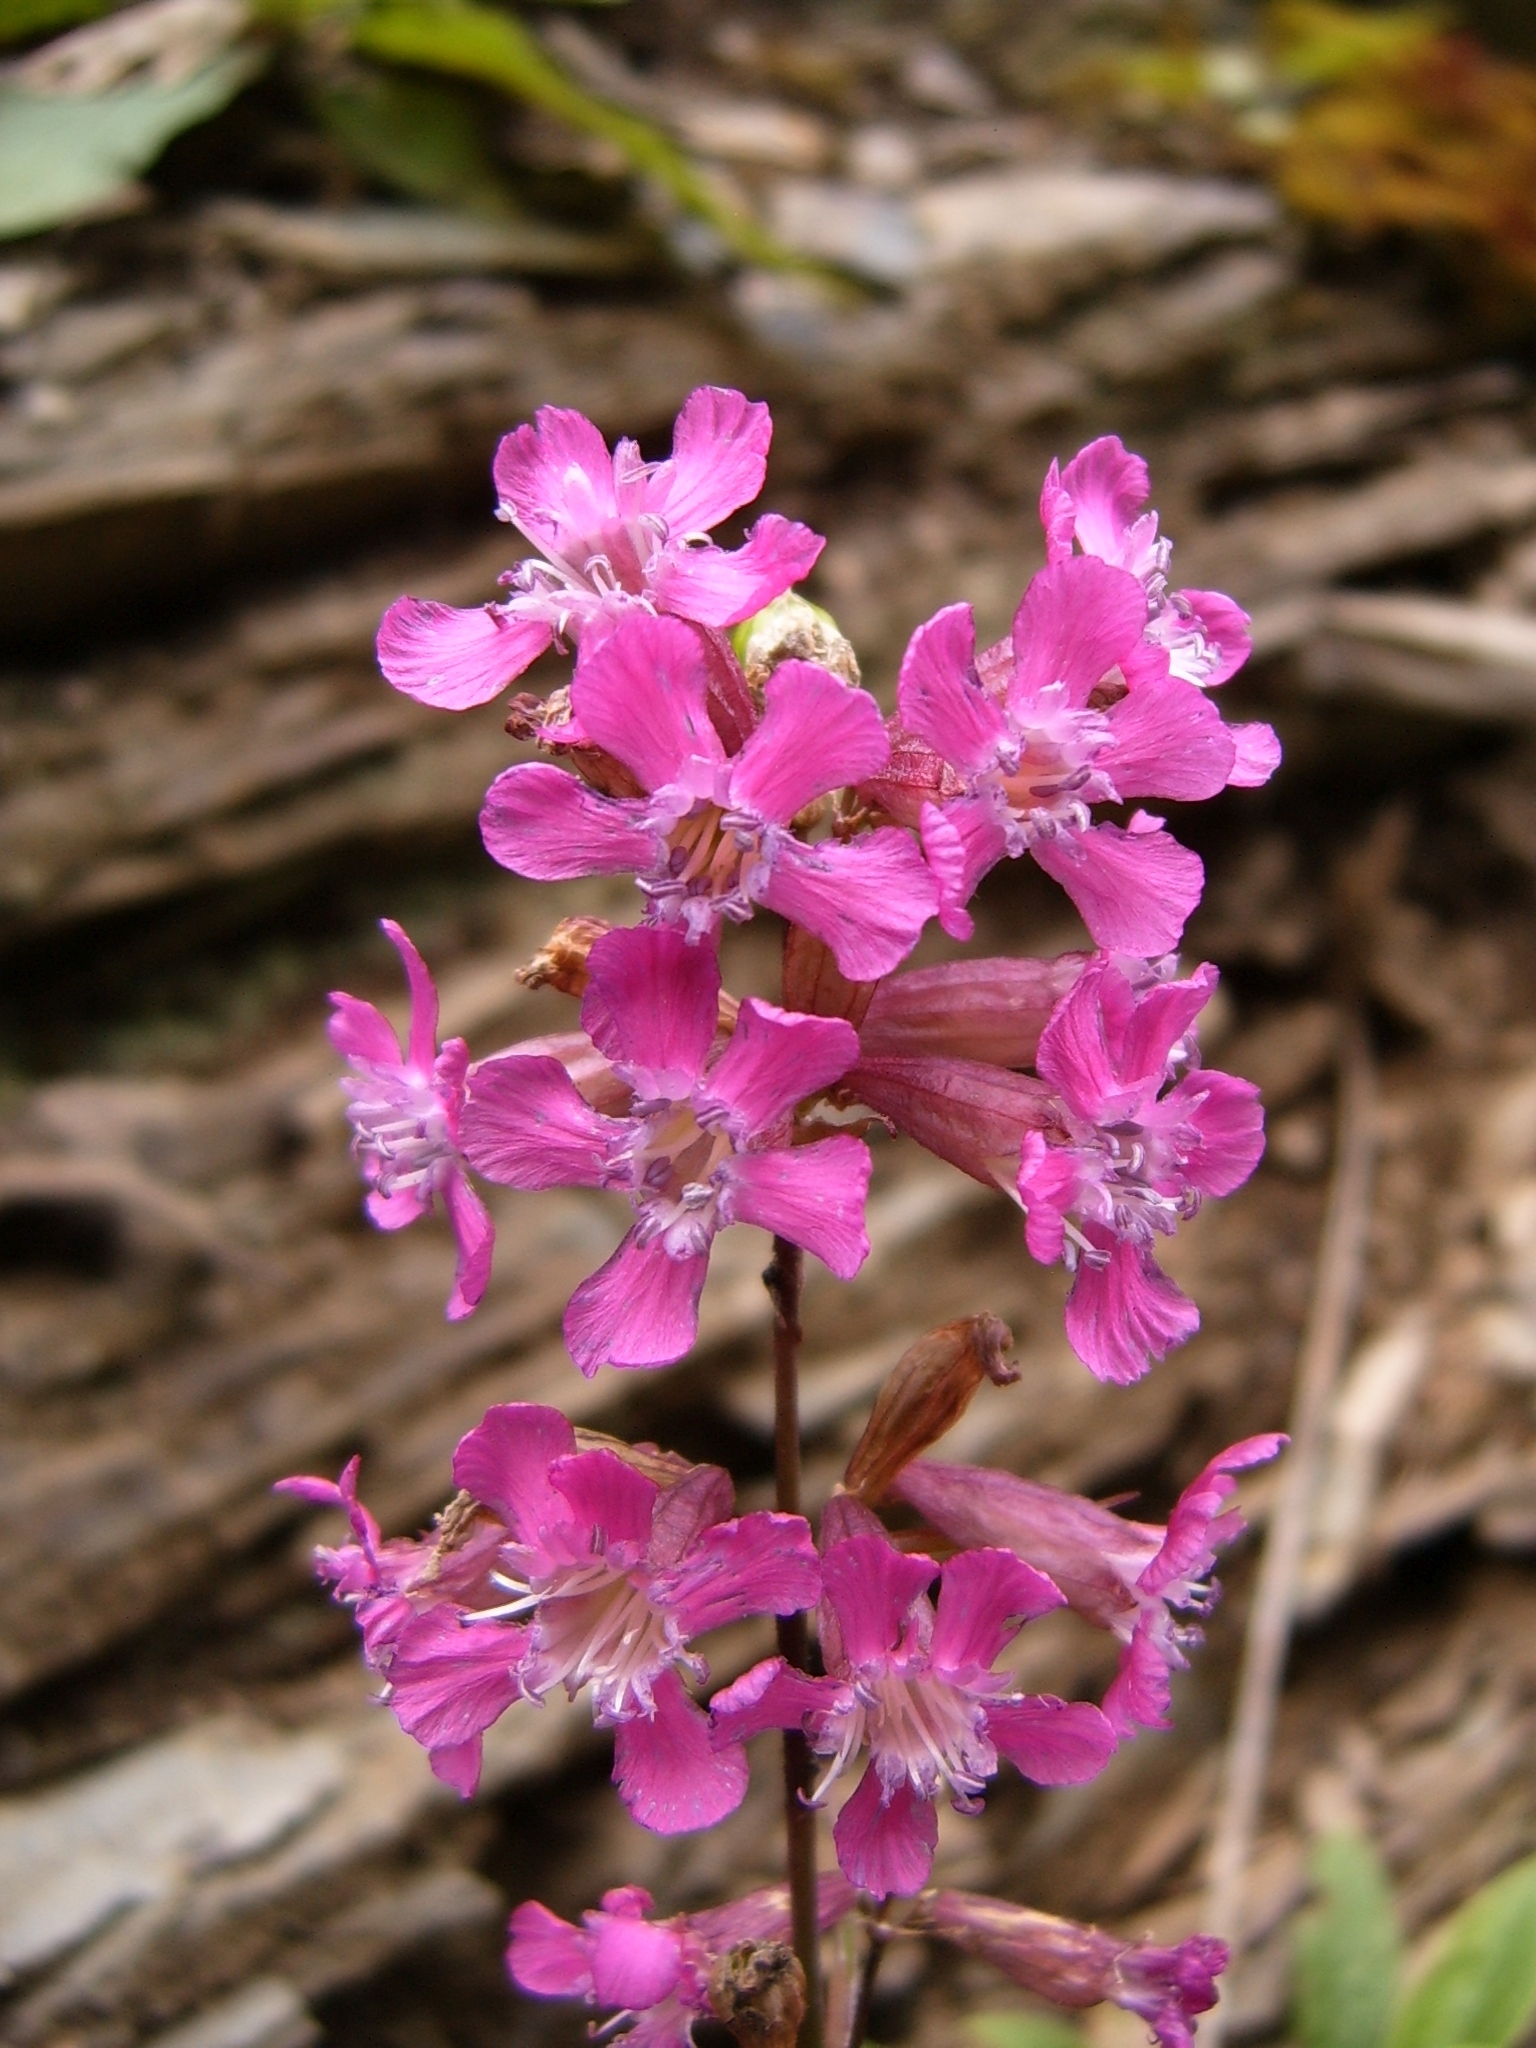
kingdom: Plantae
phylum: Tracheophyta
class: Magnoliopsida
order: Caryophyllales
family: Caryophyllaceae
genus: Viscaria
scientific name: Viscaria vulgaris
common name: Clammy campion
